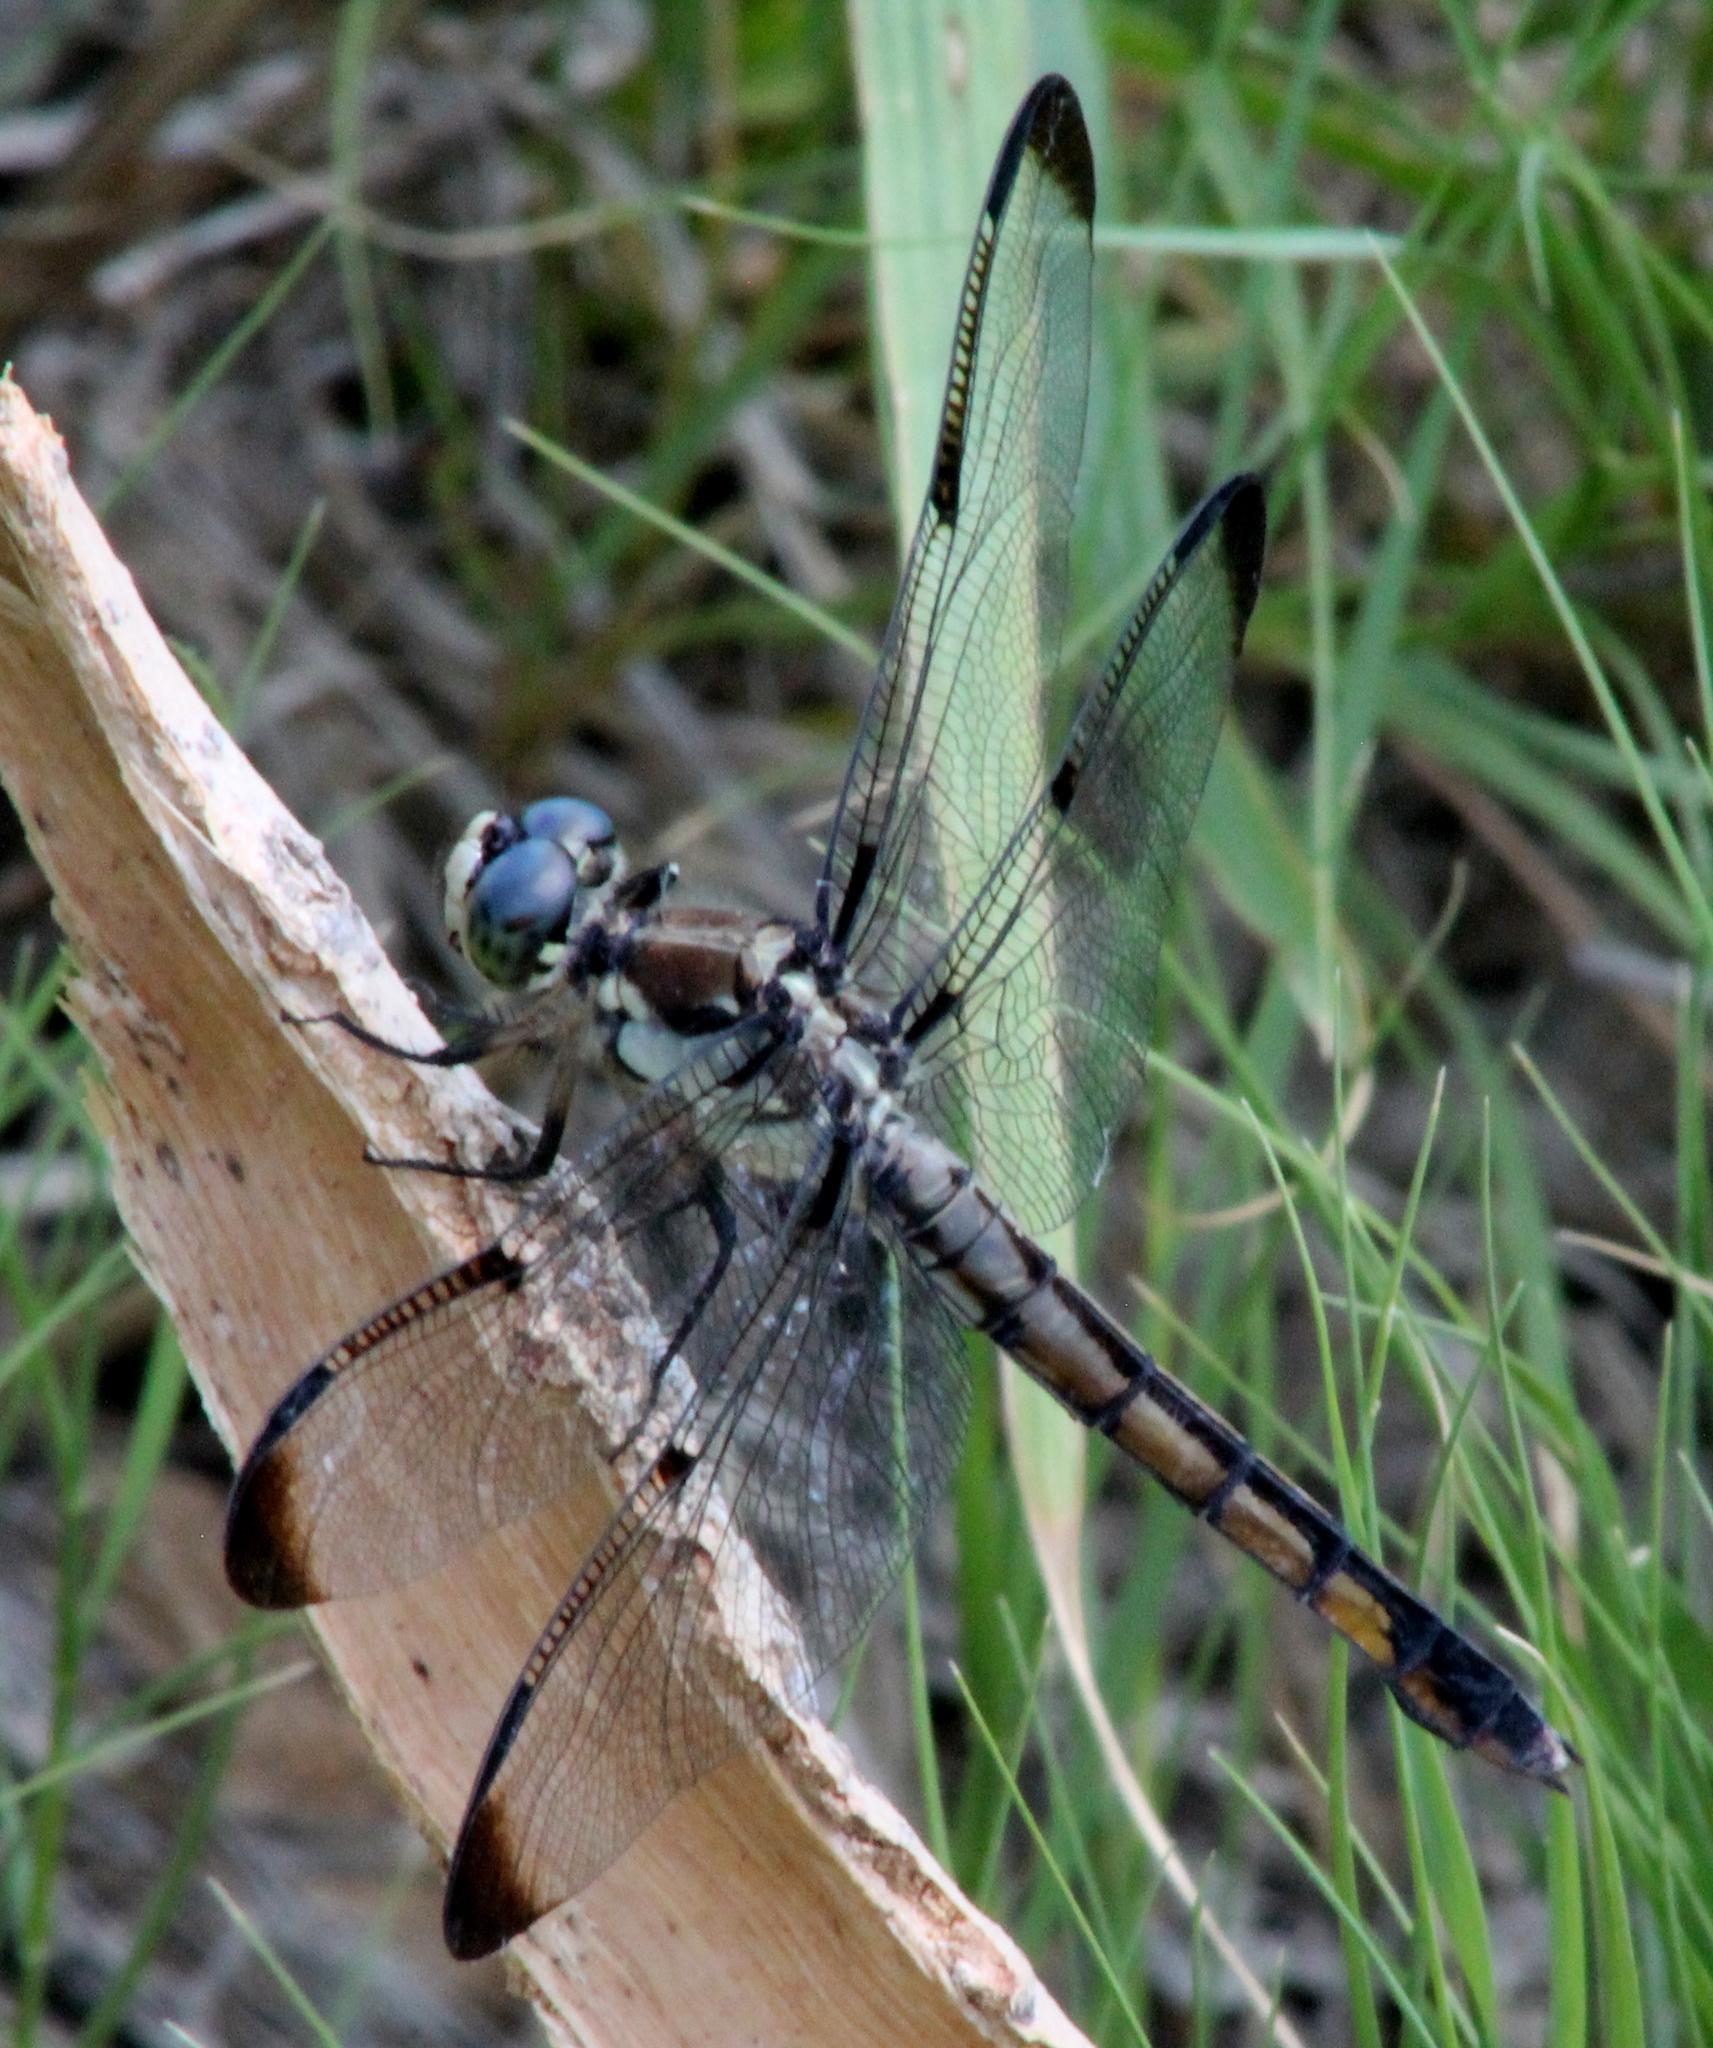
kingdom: Animalia
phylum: Arthropoda
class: Insecta
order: Odonata
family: Libellulidae
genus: Libellula
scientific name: Libellula vibrans
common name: Great blue skimmer
